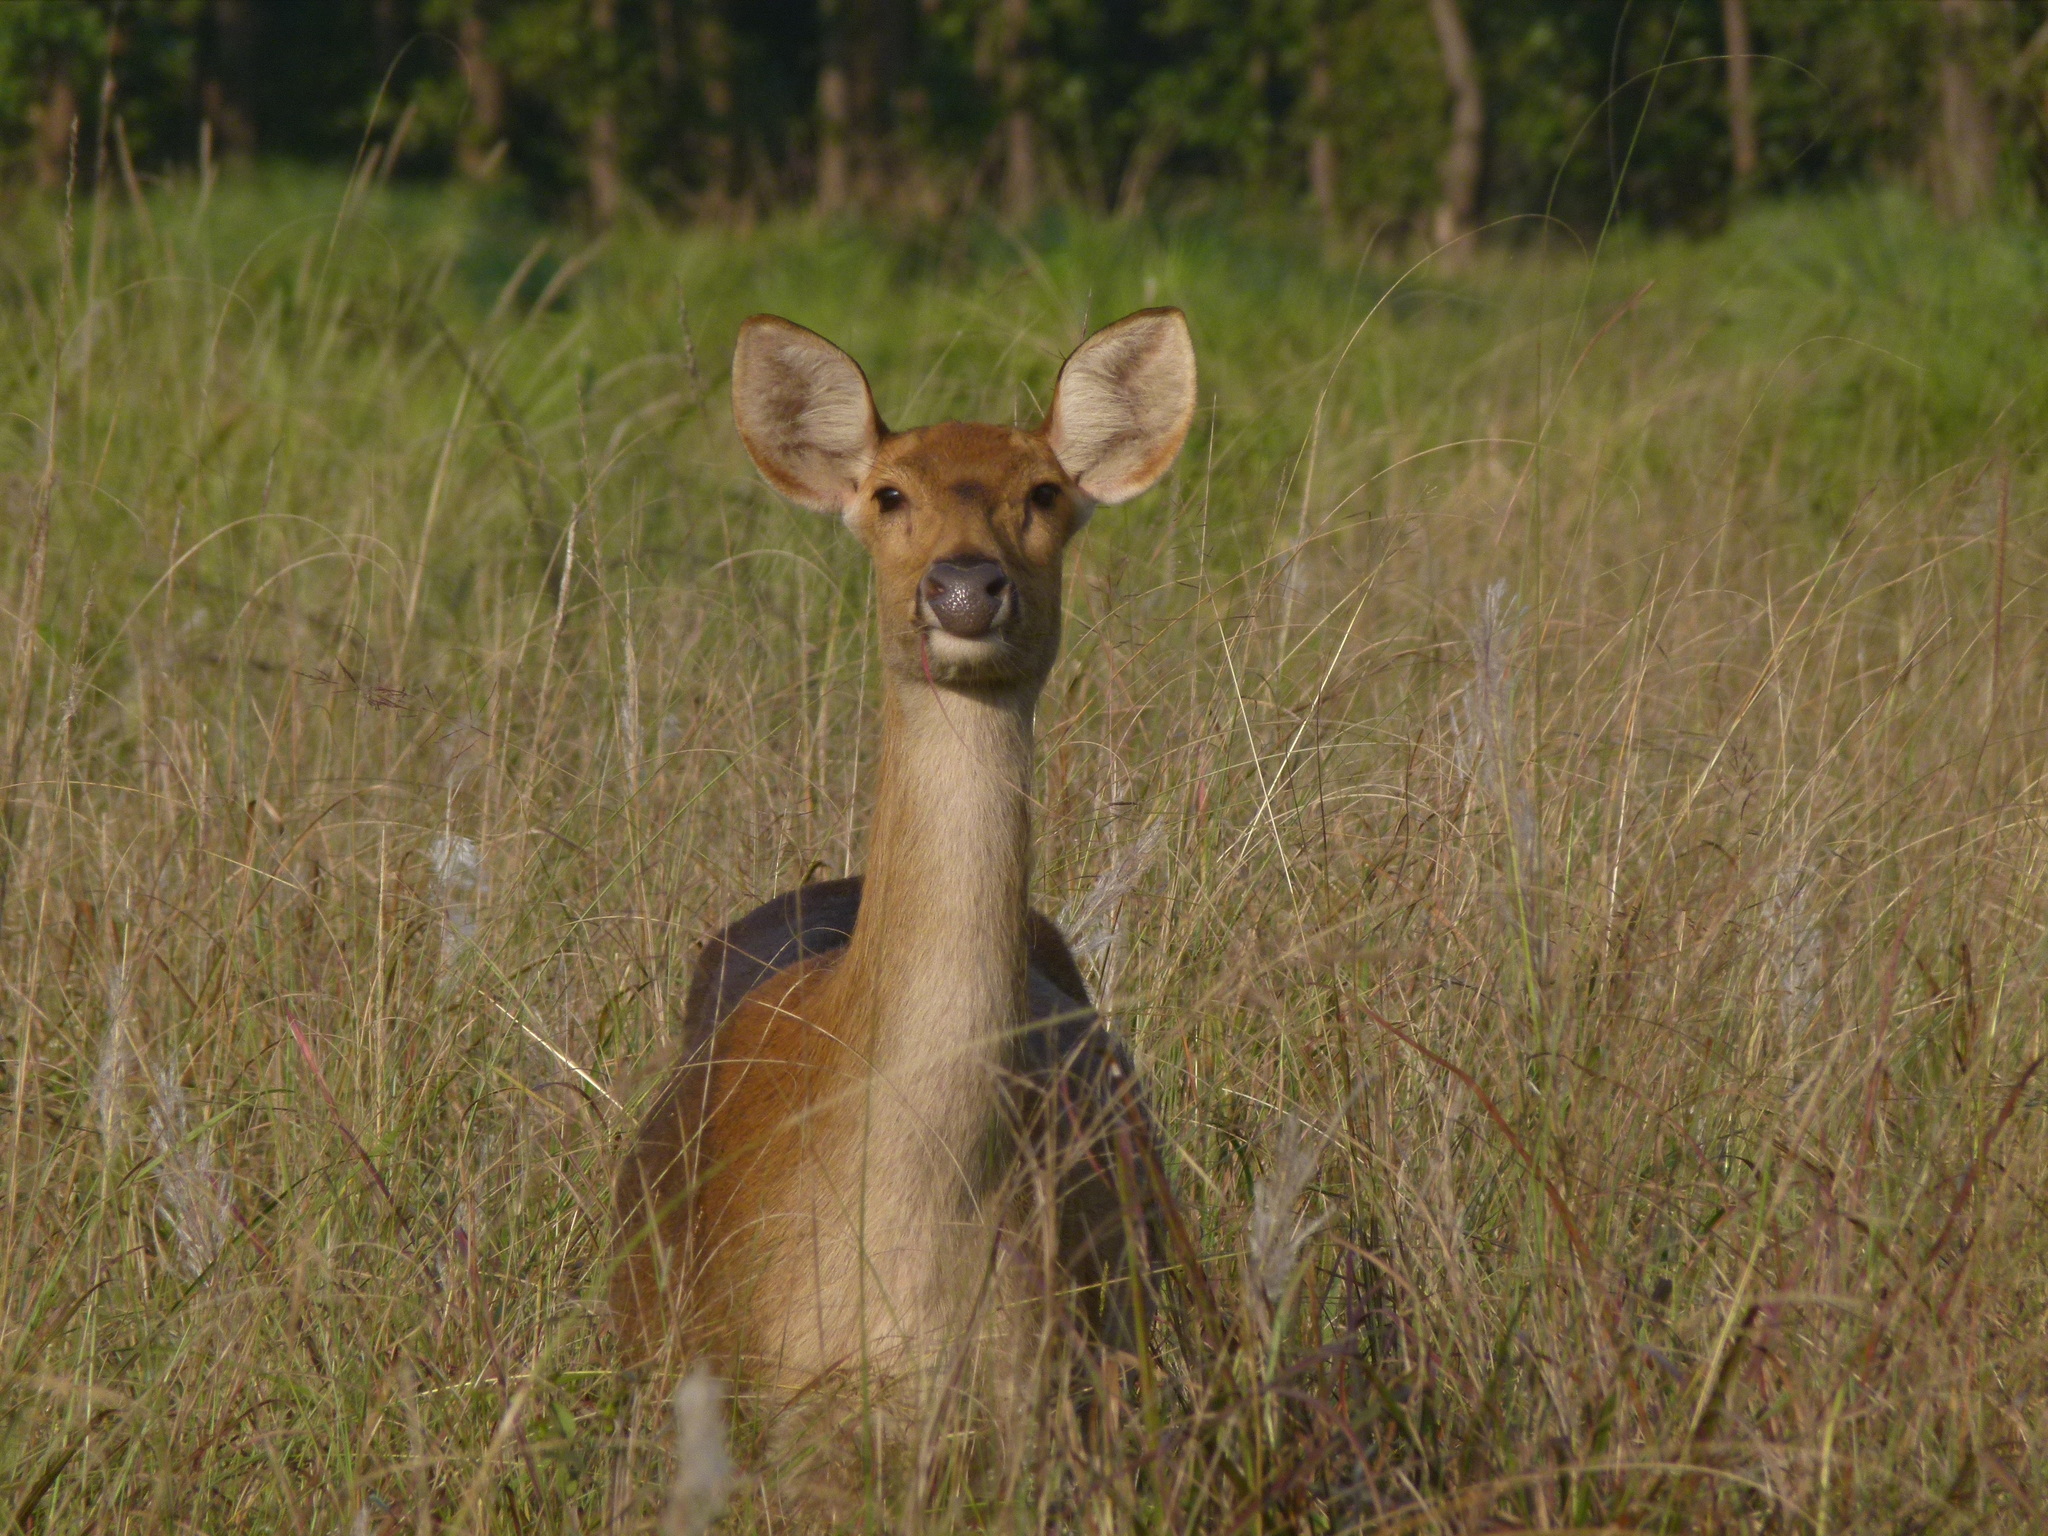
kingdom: Animalia
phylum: Chordata
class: Mammalia
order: Artiodactyla
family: Cervidae
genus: Rucervus
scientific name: Rucervus duvaucelii
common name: Barasingha
